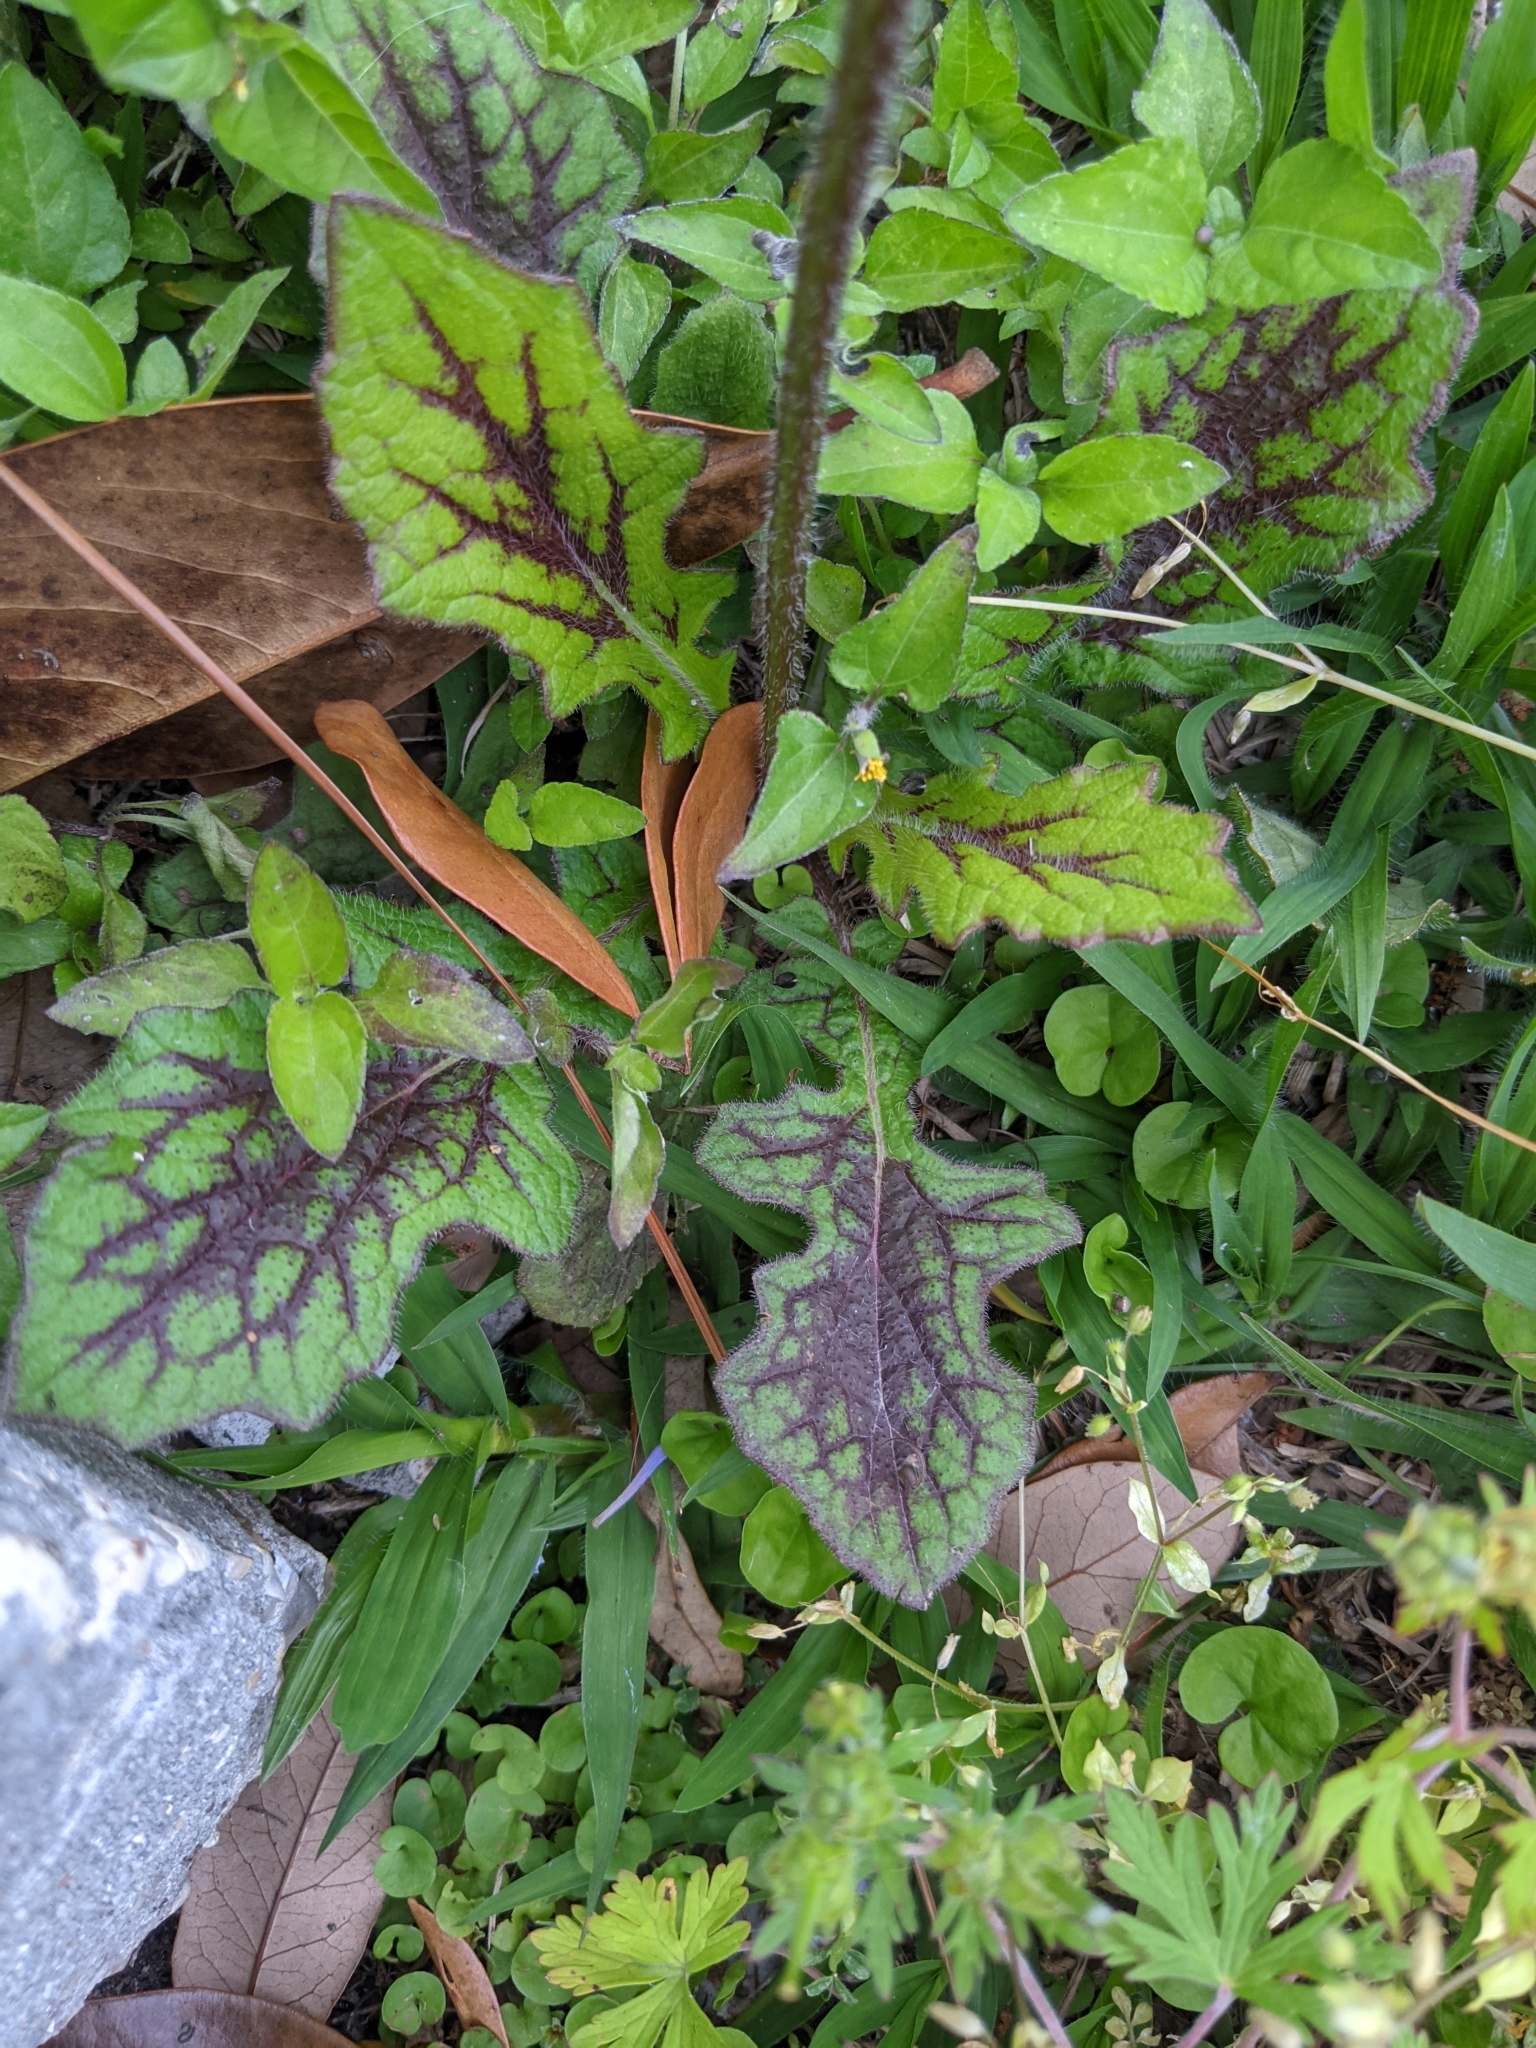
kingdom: Plantae
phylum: Tracheophyta
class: Magnoliopsida
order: Lamiales
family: Lamiaceae
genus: Salvia
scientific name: Salvia lyrata
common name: Cancerweed
